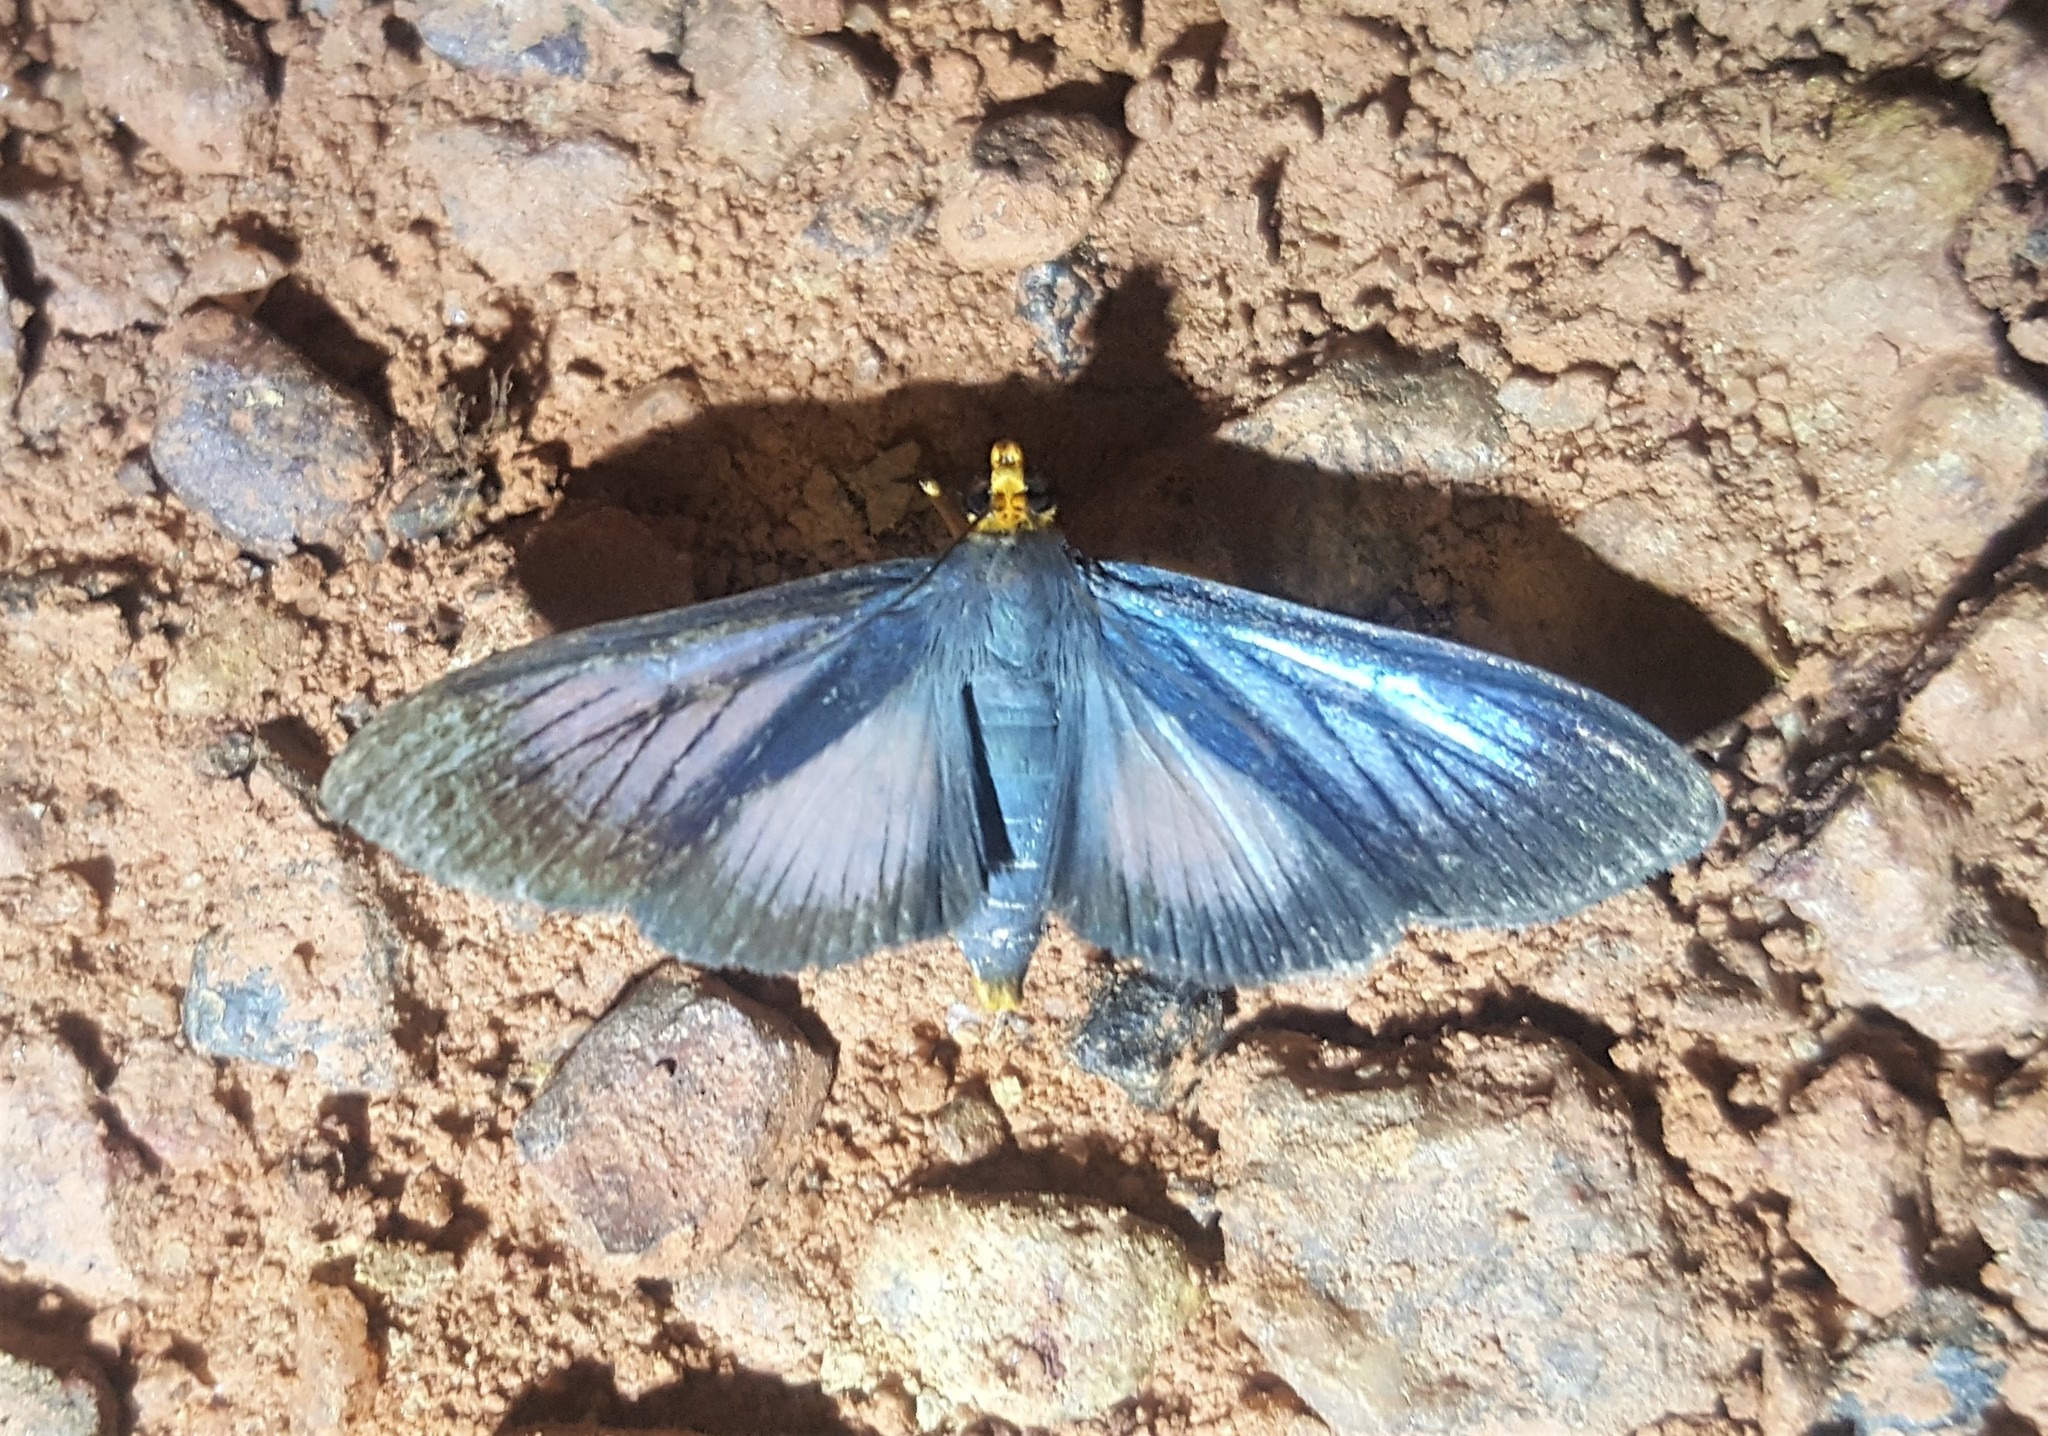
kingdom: Animalia
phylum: Arthropoda
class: Insecta
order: Lepidoptera
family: Crambidae
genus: Omiodes
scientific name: Omiodes croceiceps
